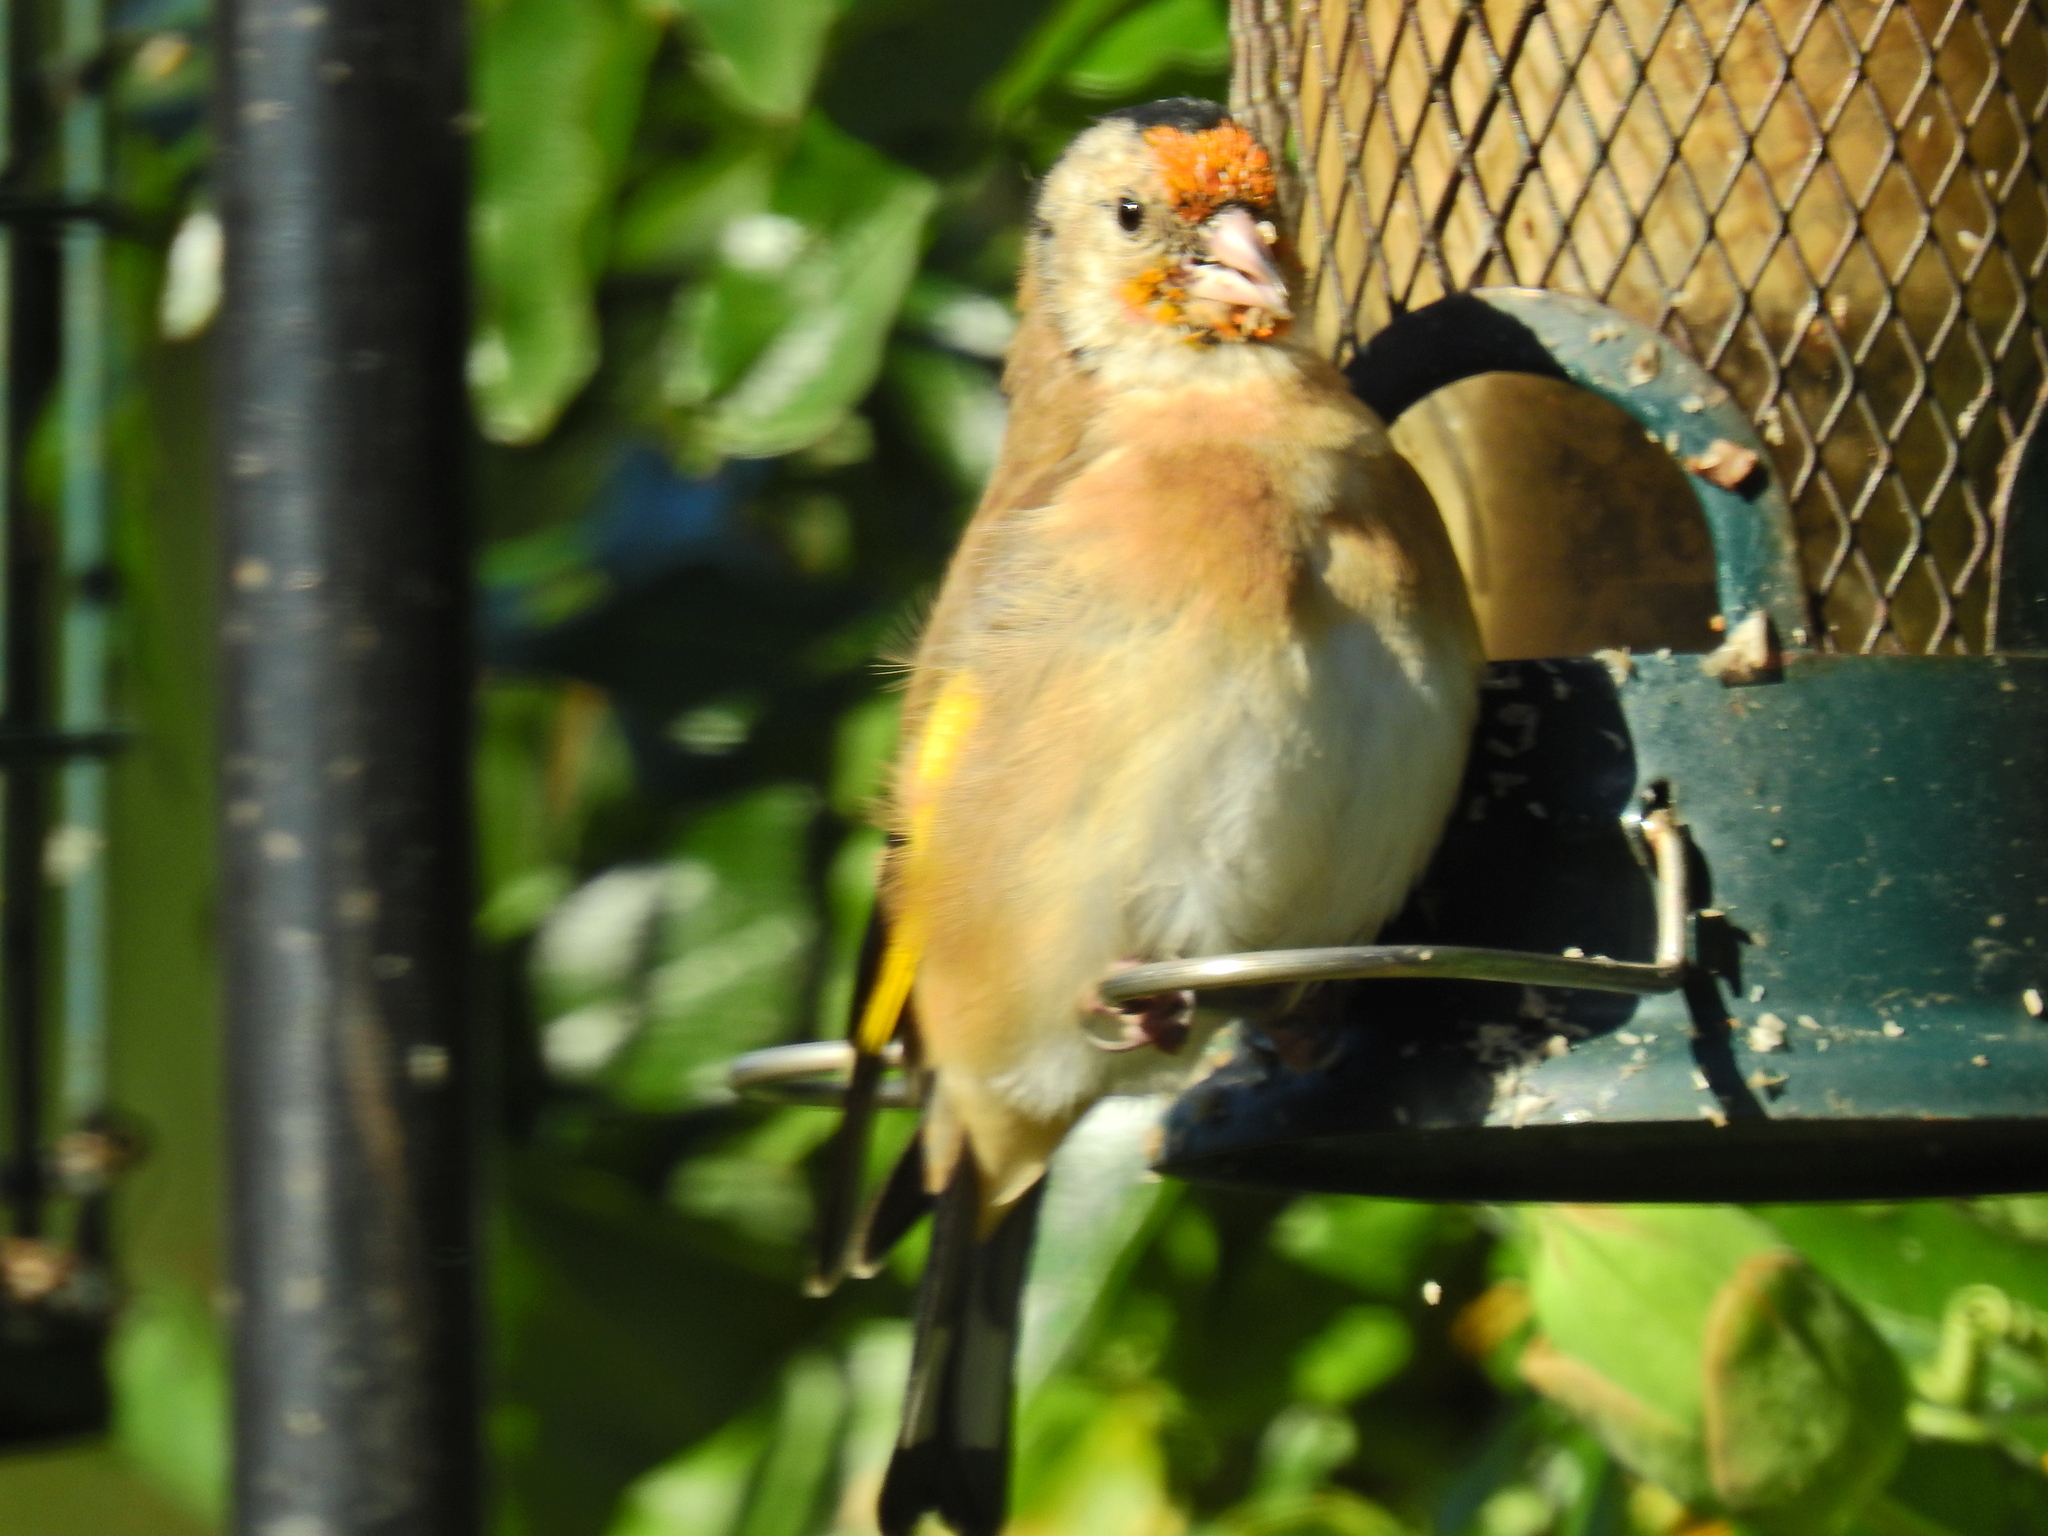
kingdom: Animalia
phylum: Chordata
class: Aves
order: Passeriformes
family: Fringillidae
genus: Carduelis
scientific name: Carduelis carduelis
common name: European goldfinch
